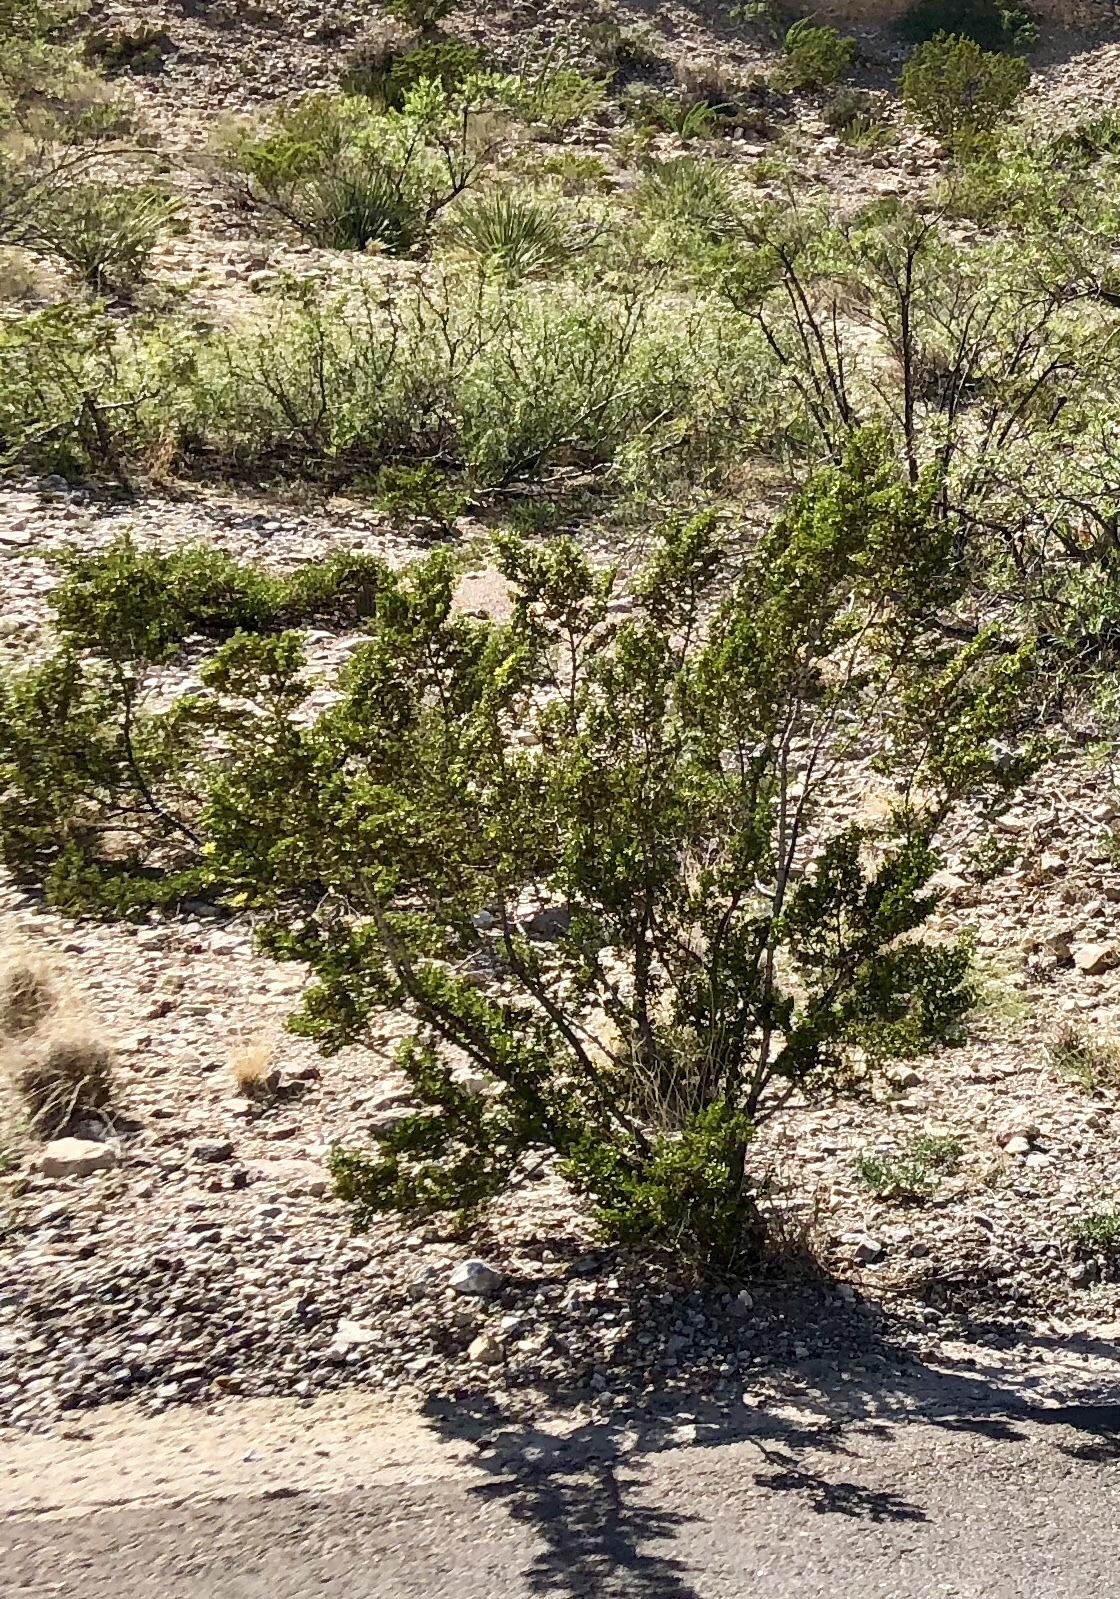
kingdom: Plantae
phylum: Tracheophyta
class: Magnoliopsida
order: Zygophyllales
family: Zygophyllaceae
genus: Larrea
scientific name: Larrea tridentata
